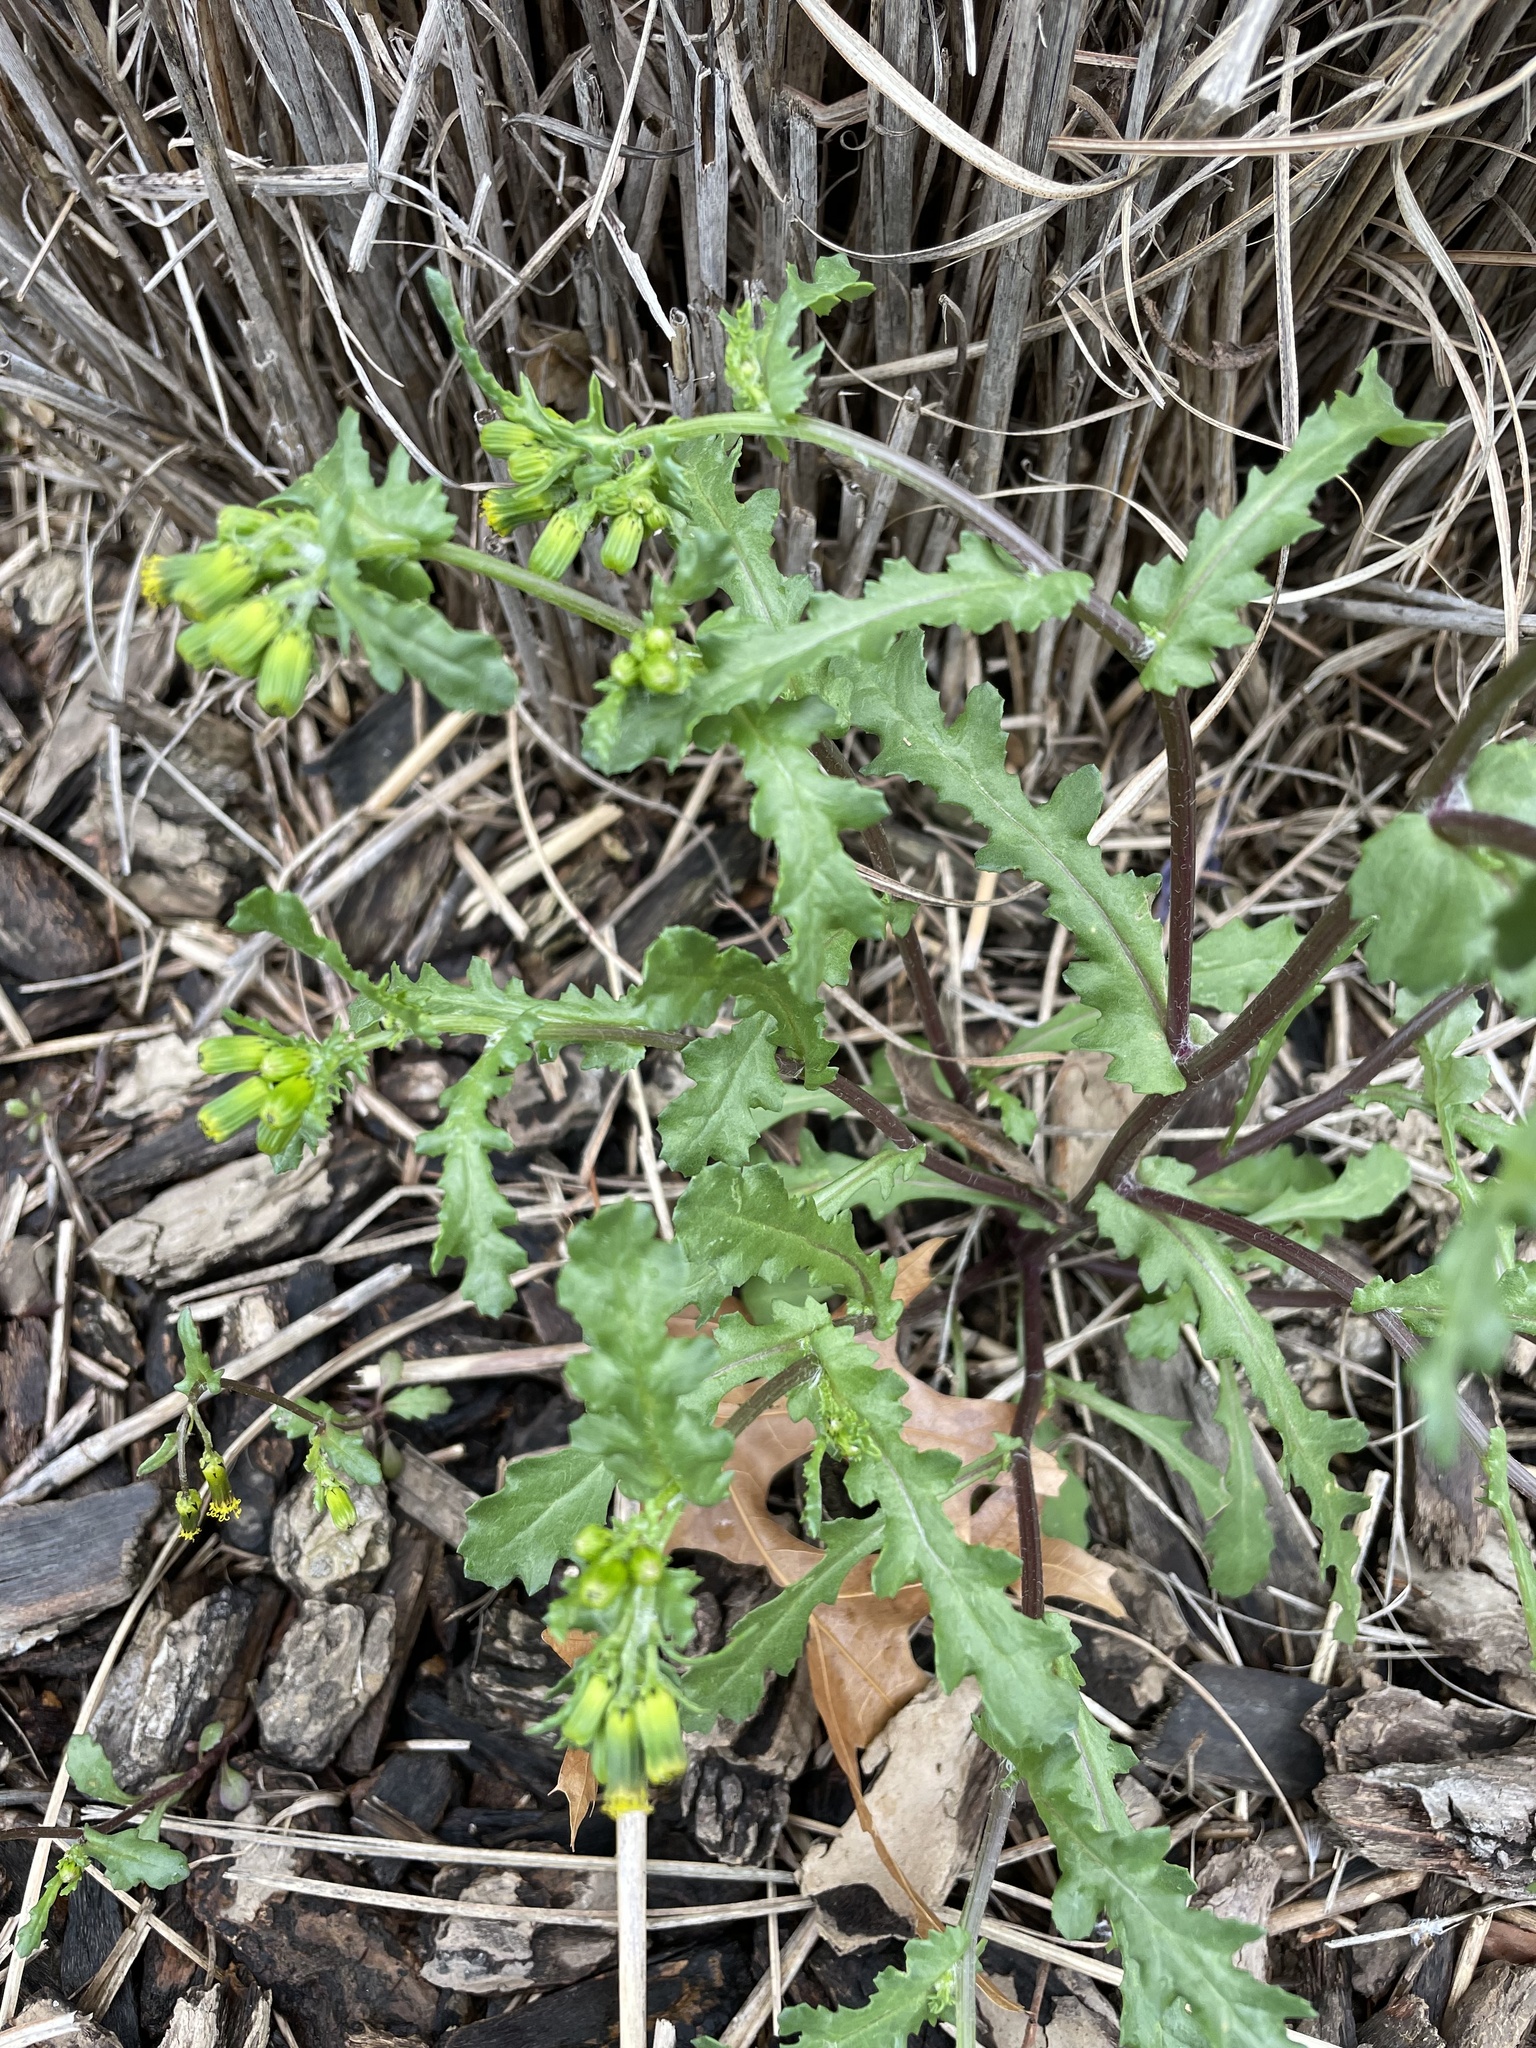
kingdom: Plantae
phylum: Tracheophyta
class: Magnoliopsida
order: Asterales
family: Asteraceae
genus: Senecio
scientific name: Senecio vulgaris
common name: Old-man-in-the-spring
